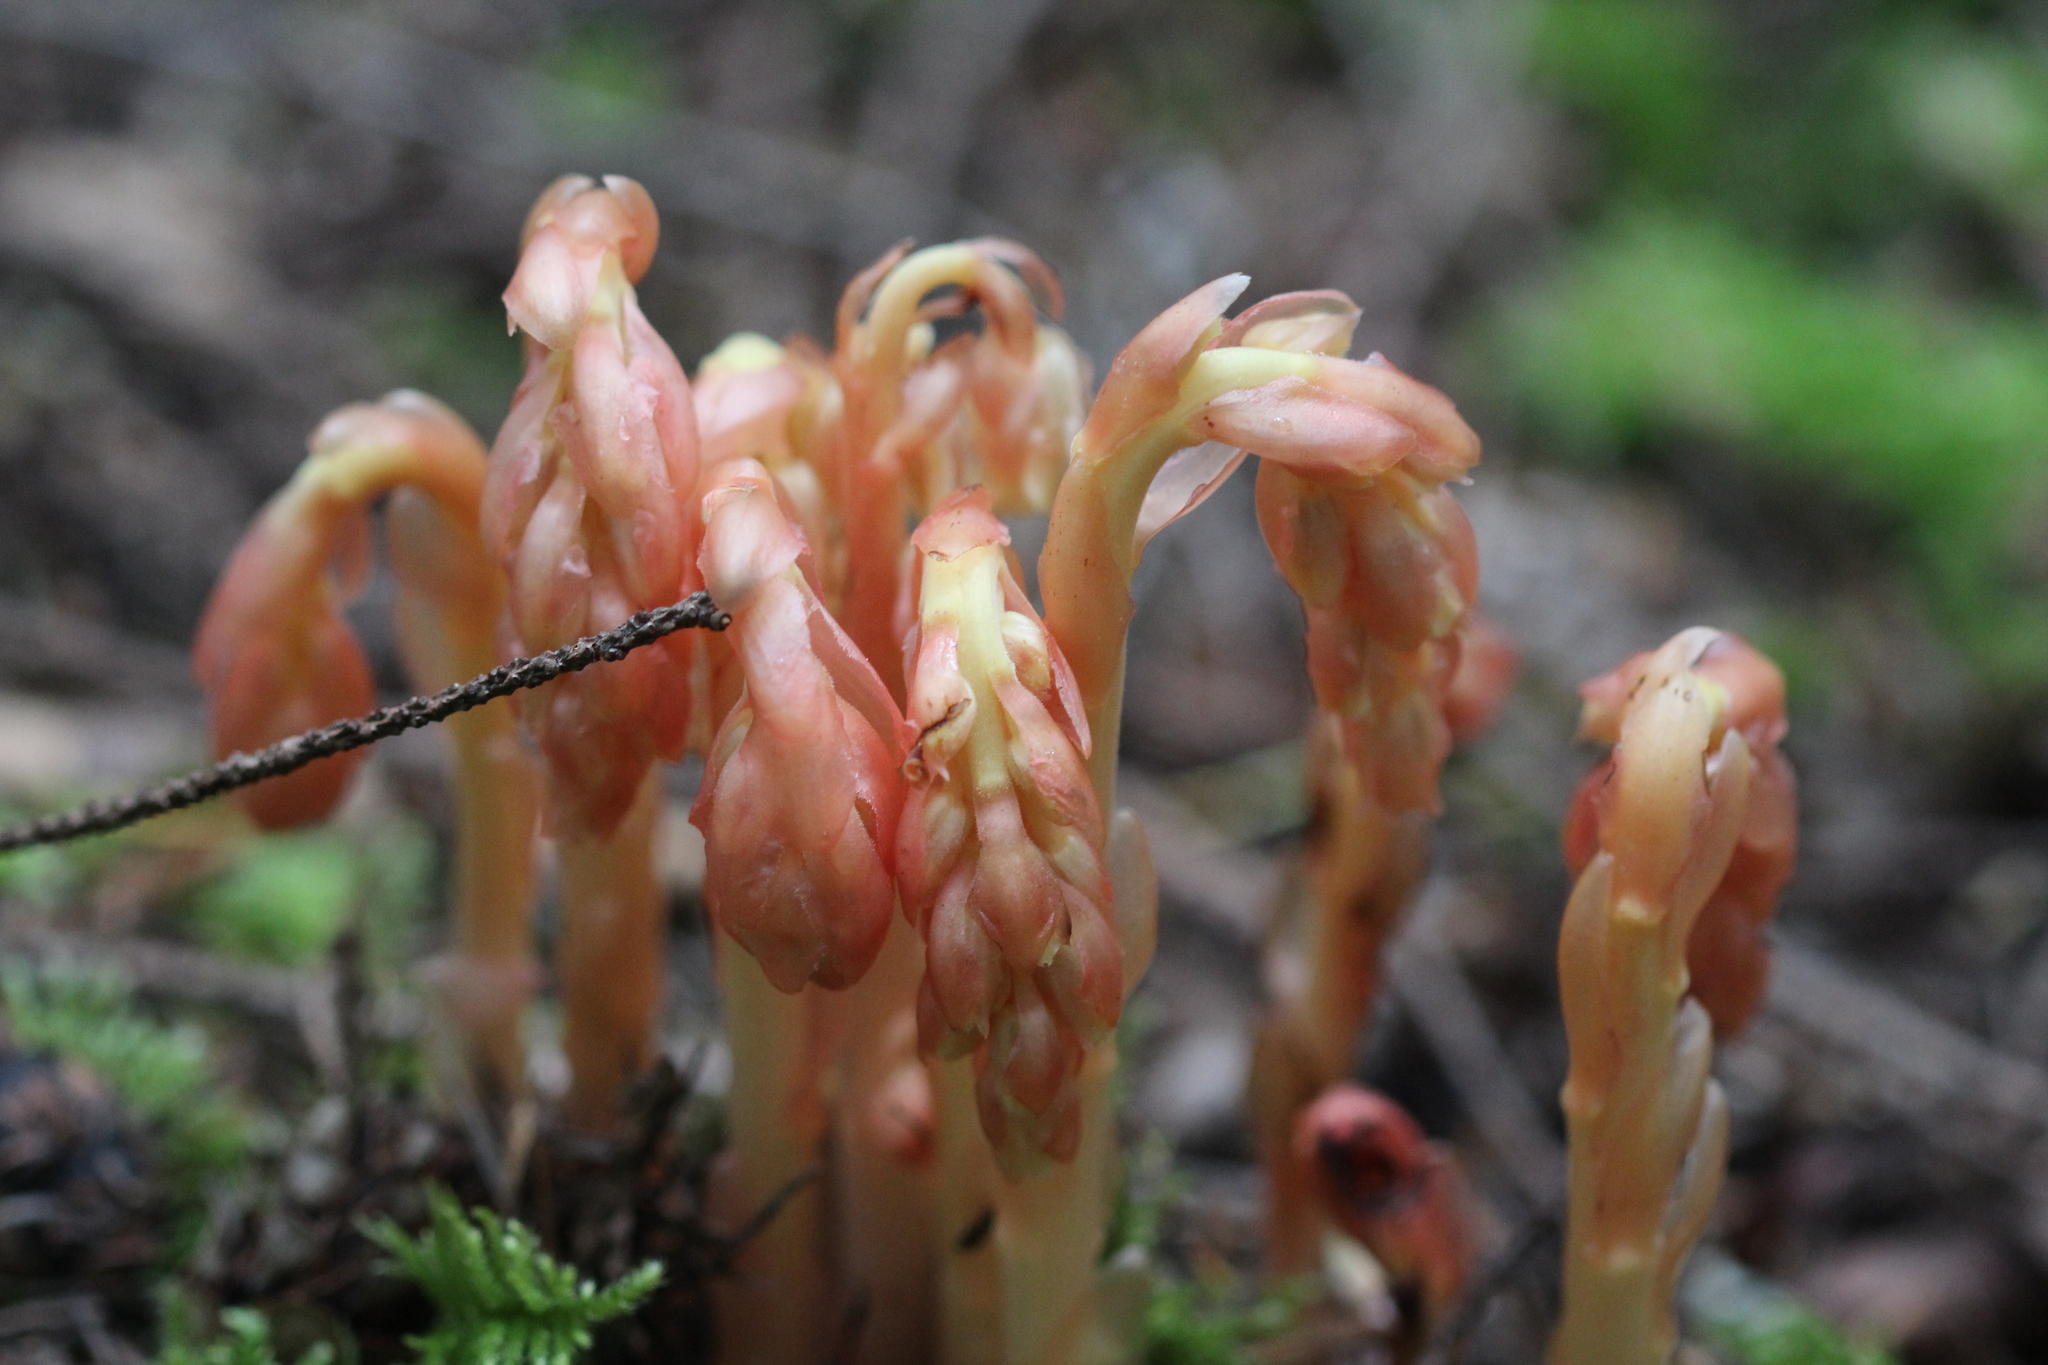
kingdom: Plantae
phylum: Tracheophyta
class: Magnoliopsida
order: Ericales
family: Ericaceae
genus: Hypopitys
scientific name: Hypopitys monotropa
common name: Yellow bird's-nest
